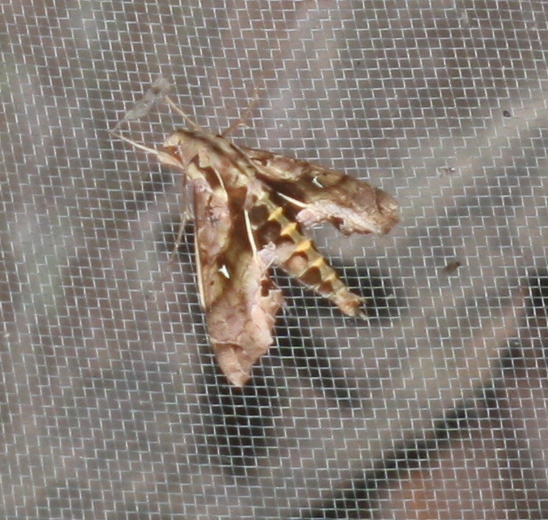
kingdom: Animalia
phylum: Arthropoda
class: Insecta
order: Lepidoptera
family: Sphingidae
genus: Hemeroplanes
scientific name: Hemeroplanes ornatus
